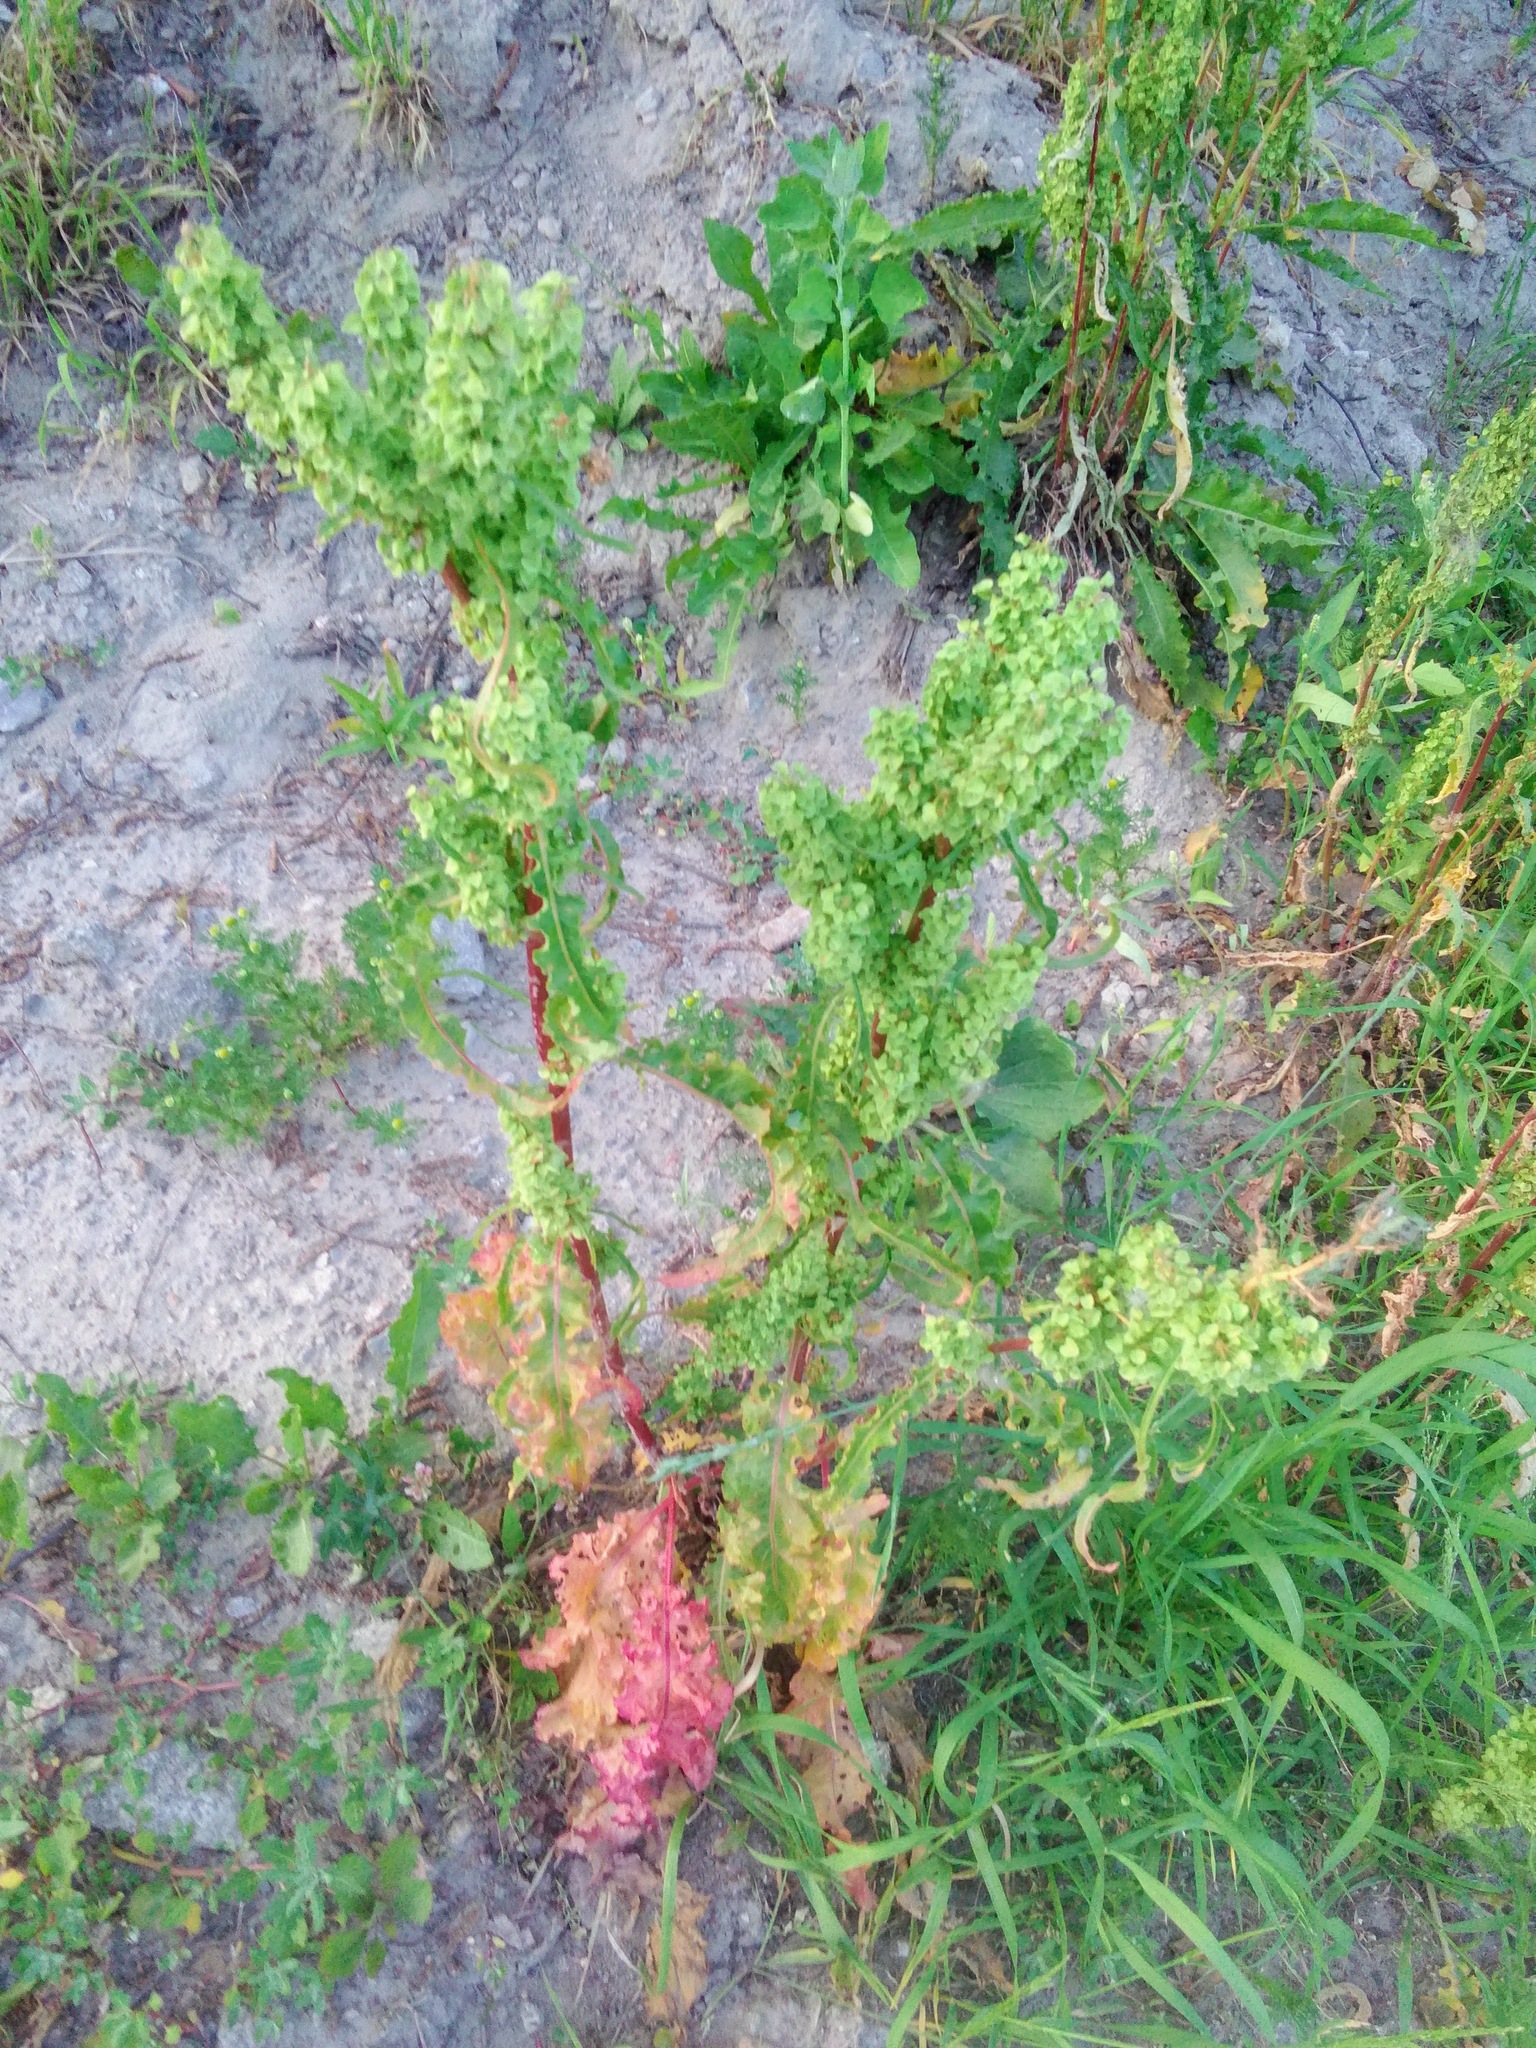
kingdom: Plantae
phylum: Tracheophyta
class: Magnoliopsida
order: Caryophyllales
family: Polygonaceae
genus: Rumex
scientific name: Rumex pseudonatronatus
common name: Field dock
